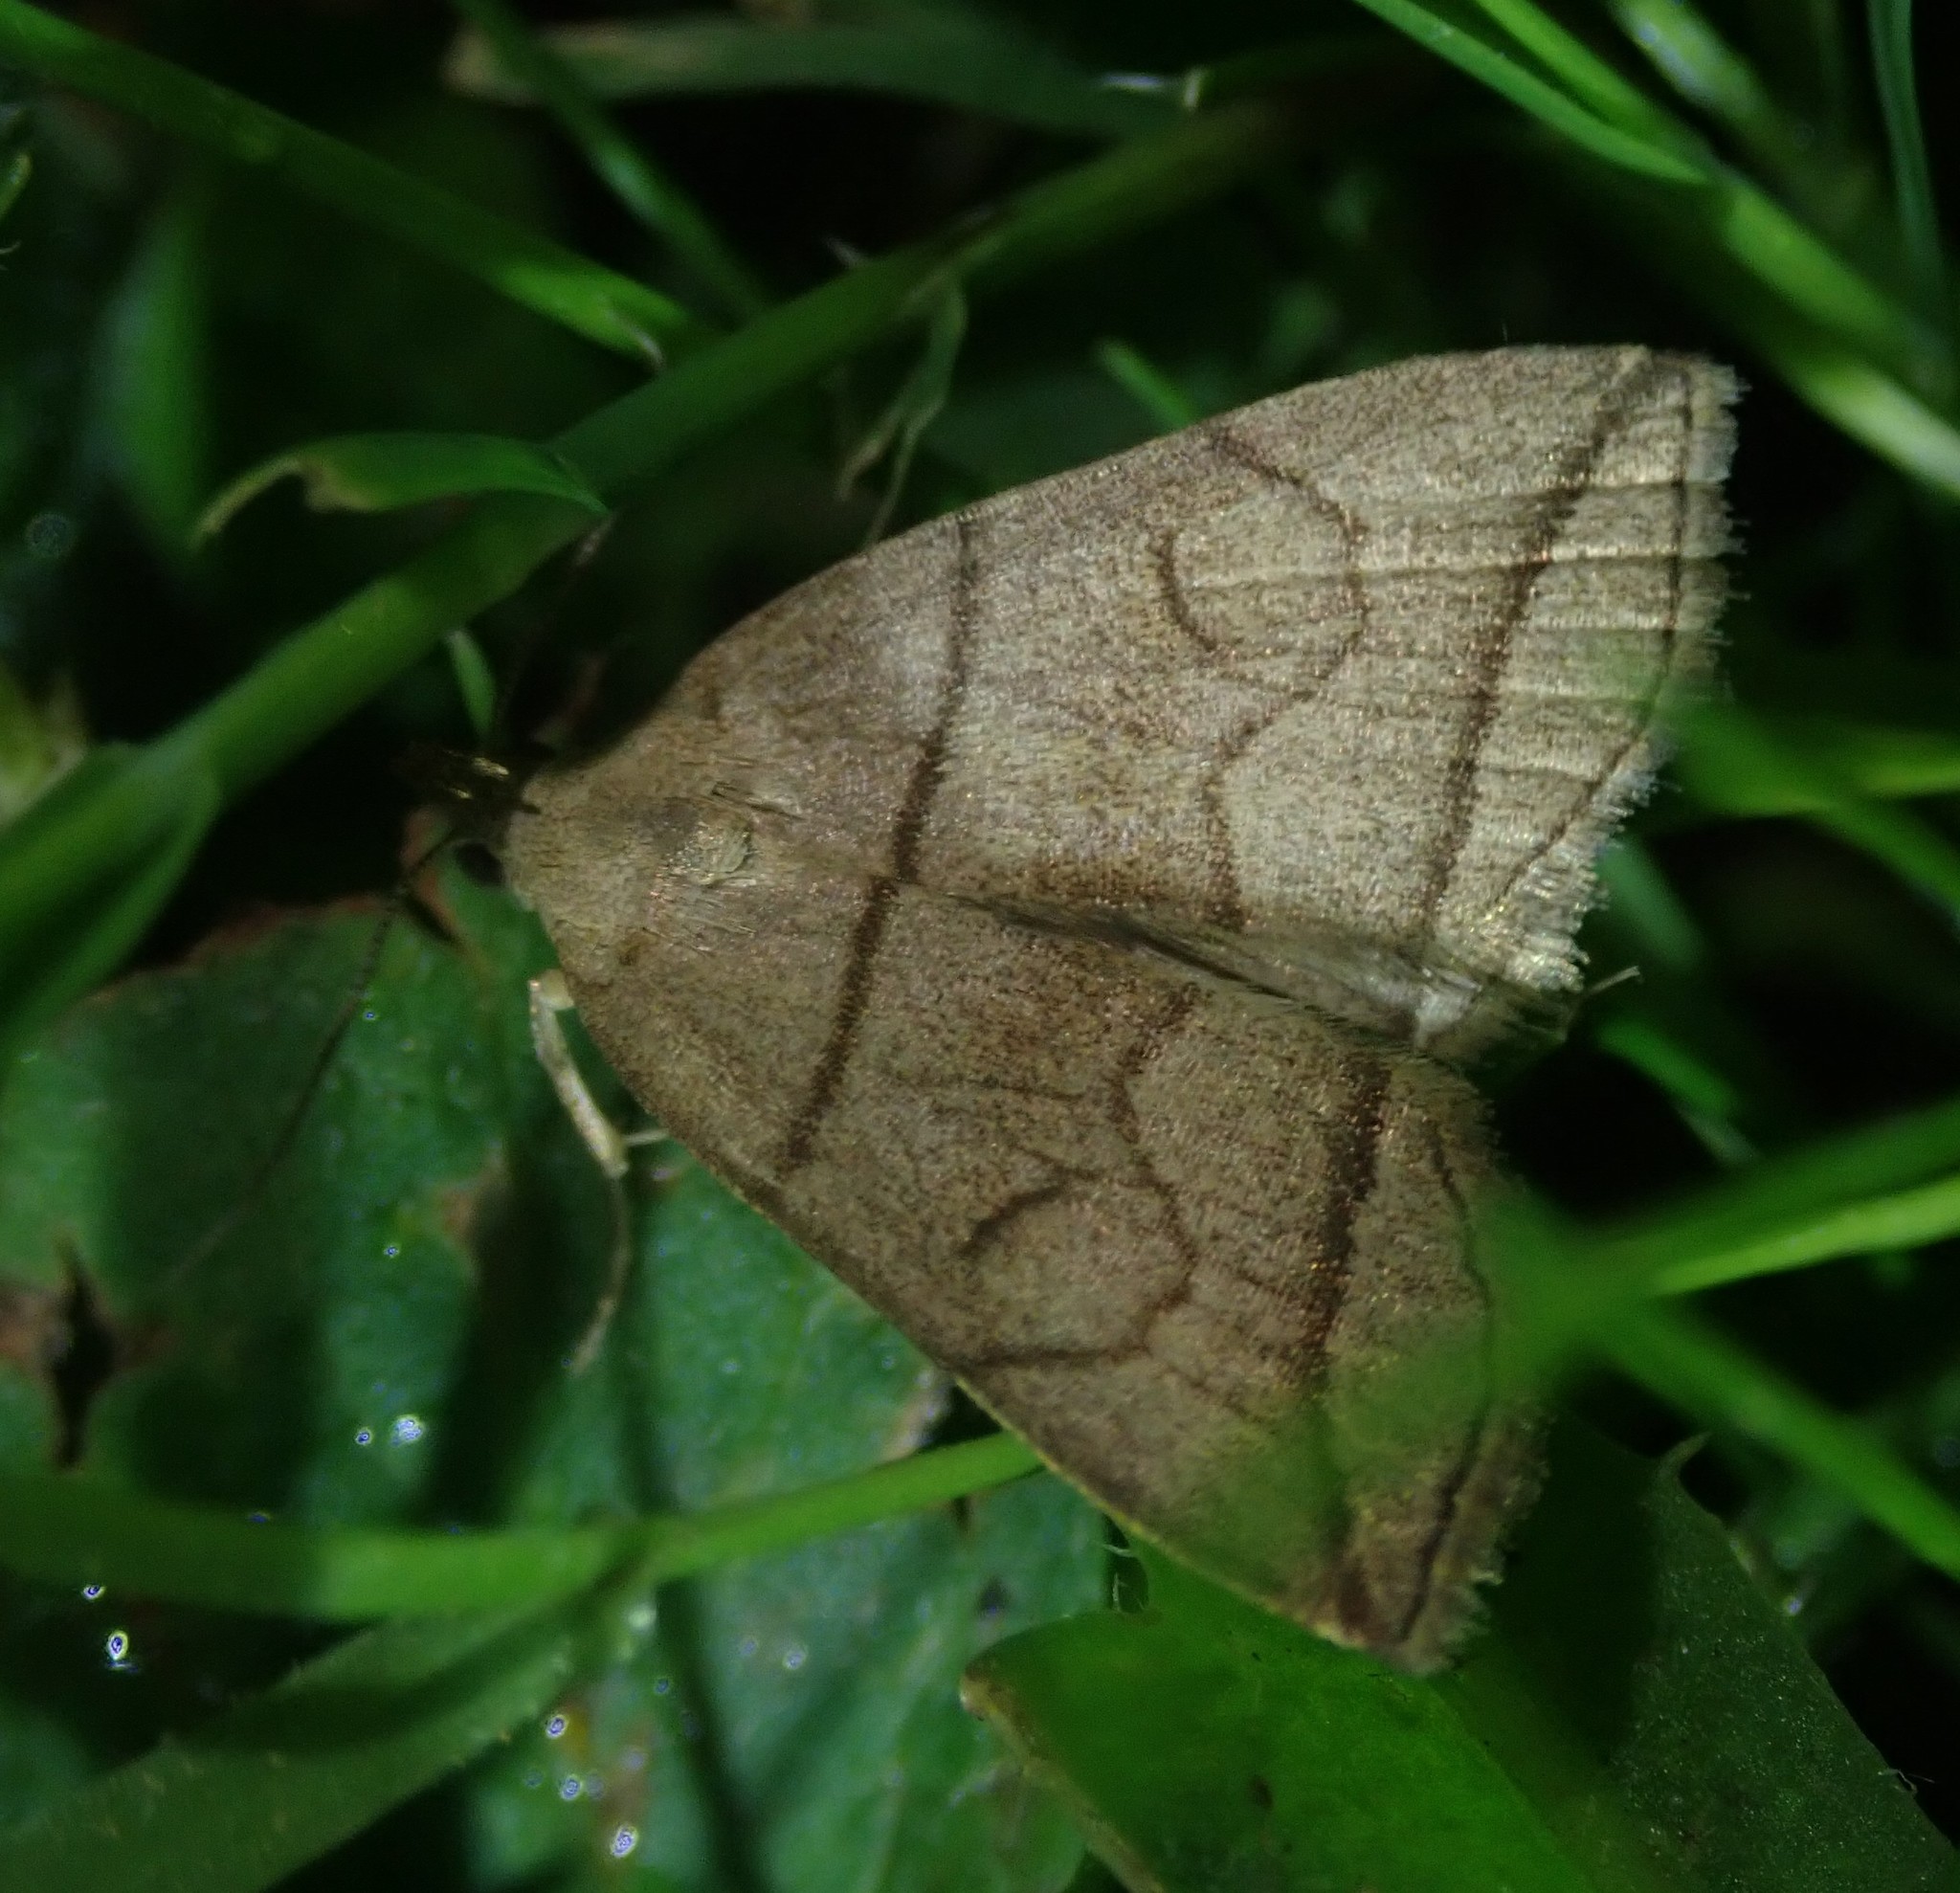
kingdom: Animalia
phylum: Arthropoda
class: Insecta
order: Lepidoptera
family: Erebidae
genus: Herminia
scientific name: Herminia grisealis
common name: Small fan-foot
